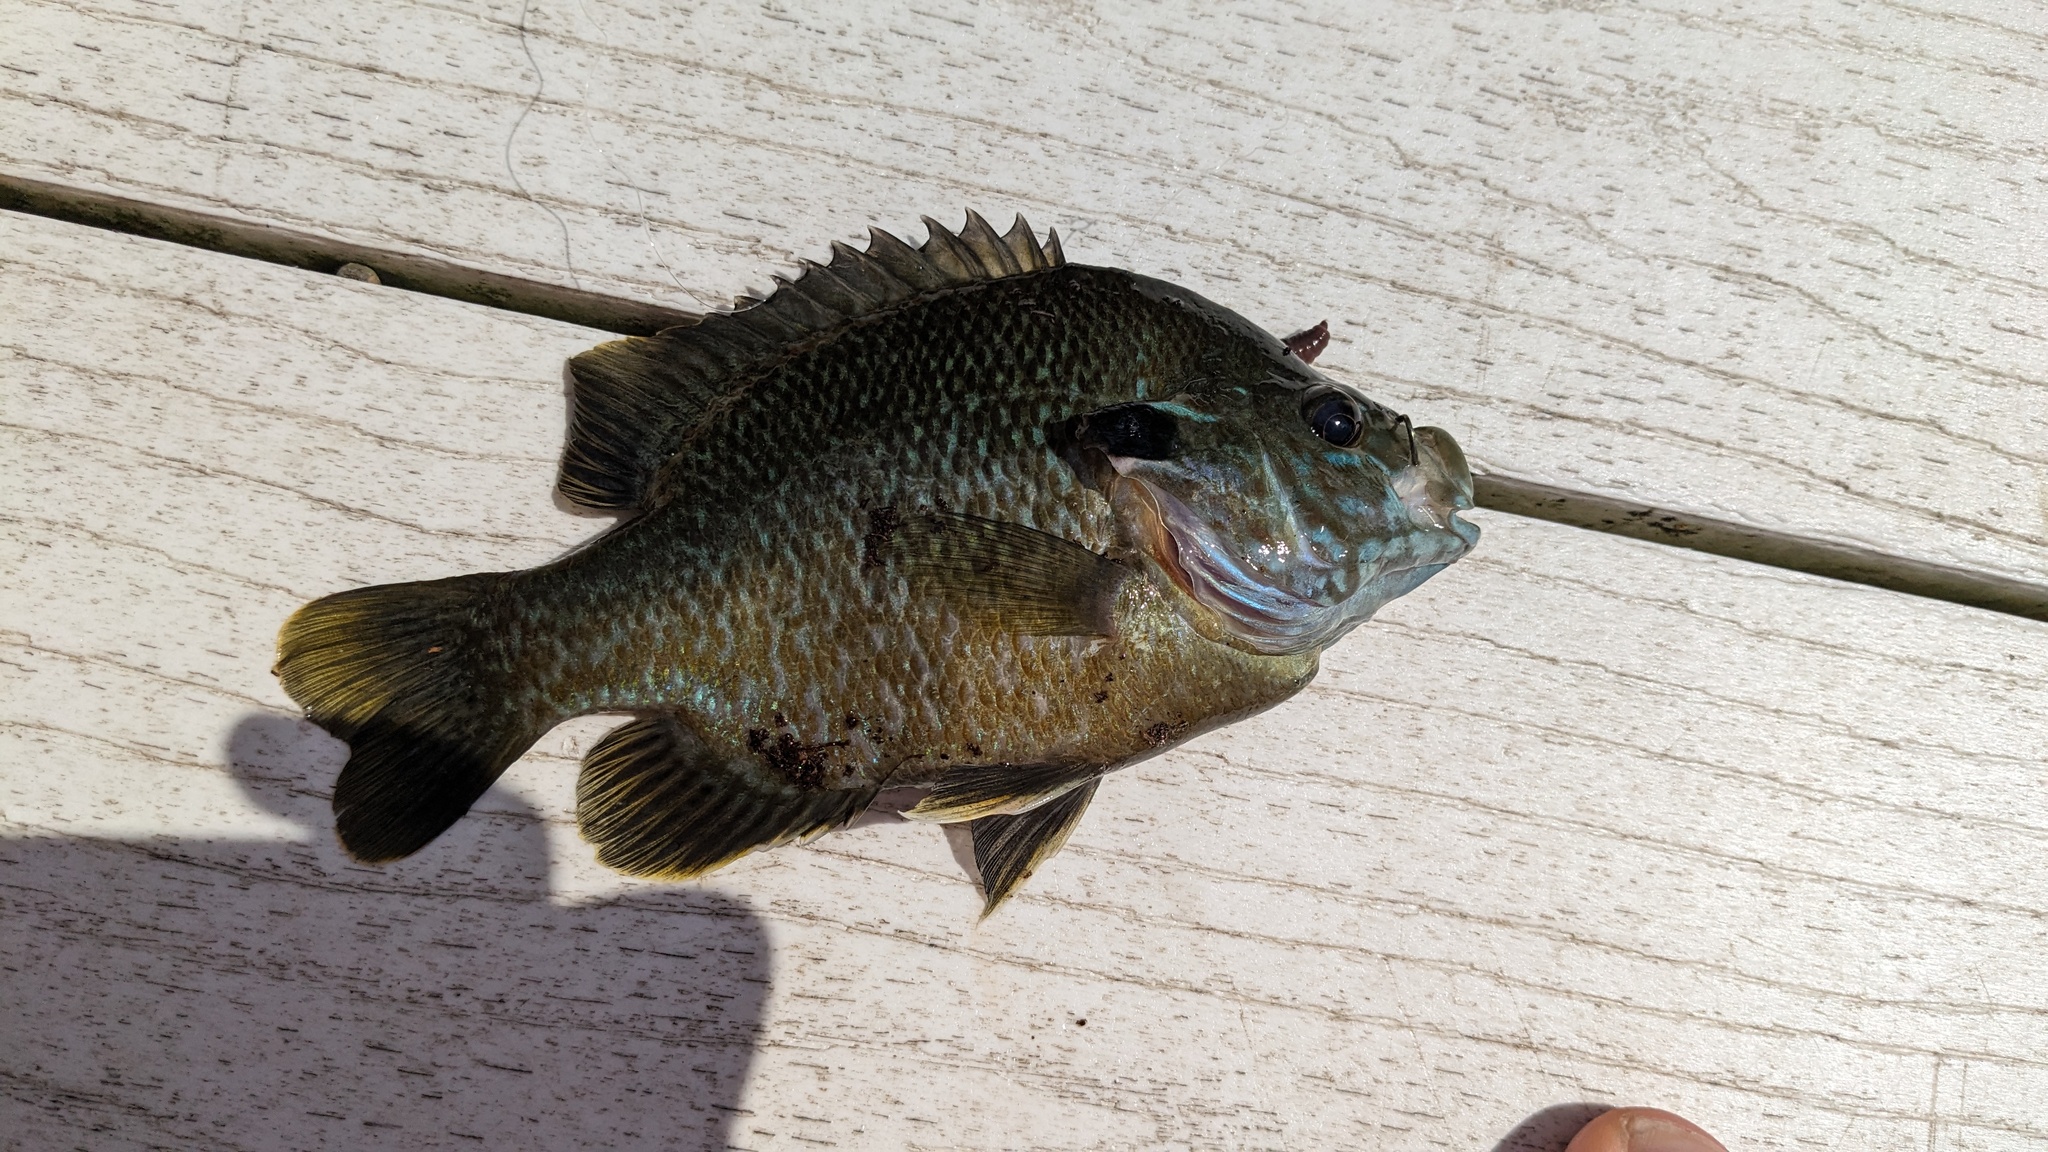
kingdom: Animalia
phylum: Chordata
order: Perciformes
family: Centrarchidae
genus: Lepomis
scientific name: Lepomis
